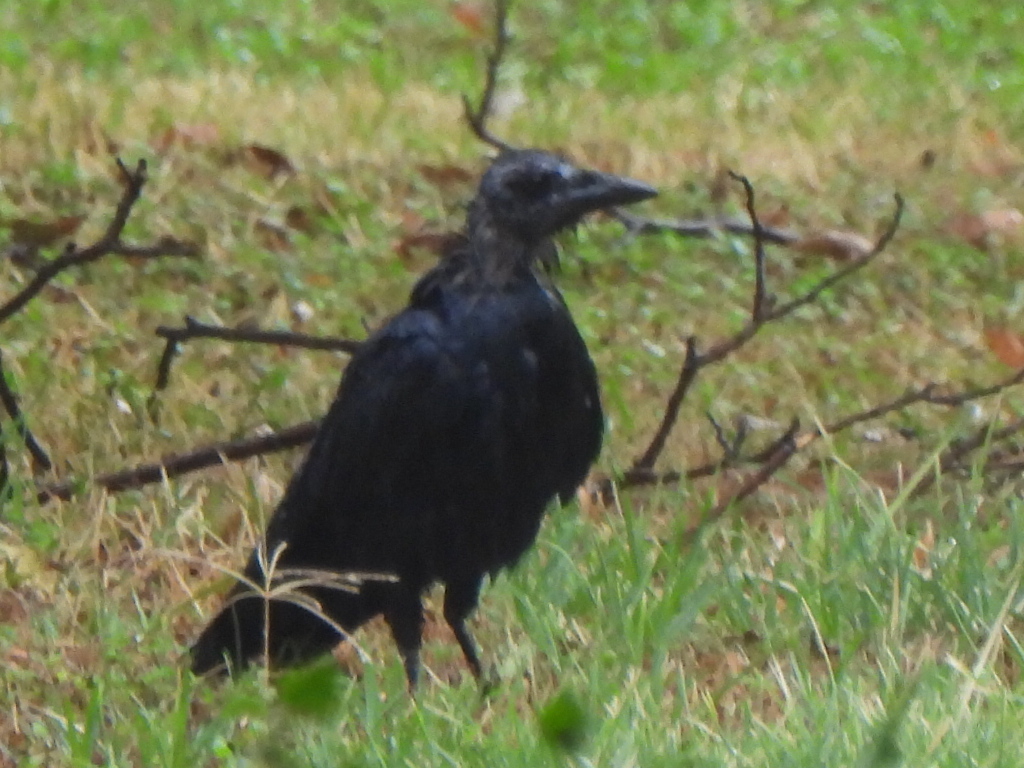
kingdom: Animalia
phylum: Chordata
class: Aves
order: Passeriformes
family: Corvidae
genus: Corvus
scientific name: Corvus brachyrhynchos
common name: American crow
